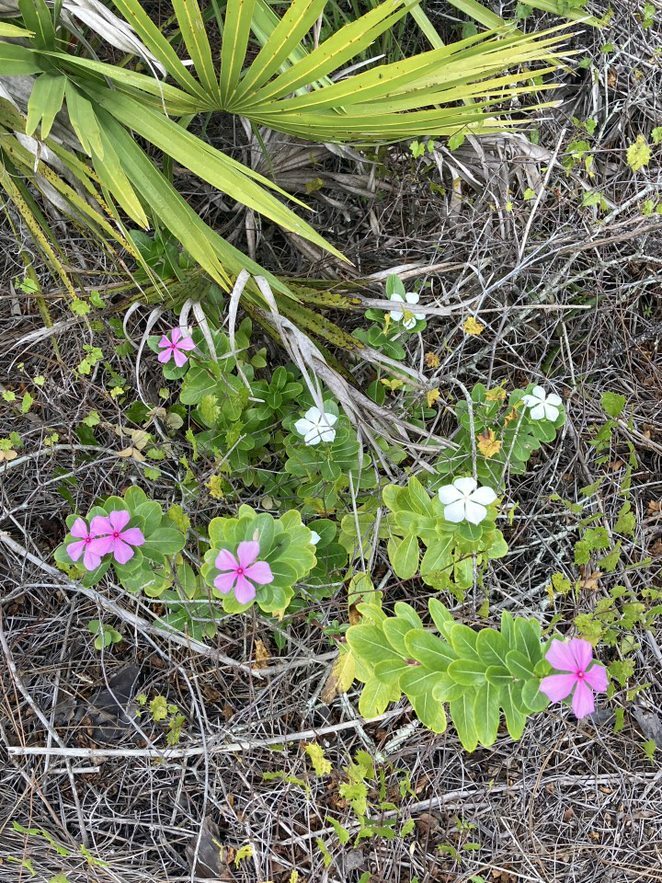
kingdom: Plantae
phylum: Tracheophyta
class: Magnoliopsida
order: Gentianales
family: Apocynaceae
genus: Catharanthus
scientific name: Catharanthus roseus
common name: Madagascar periwinkle
